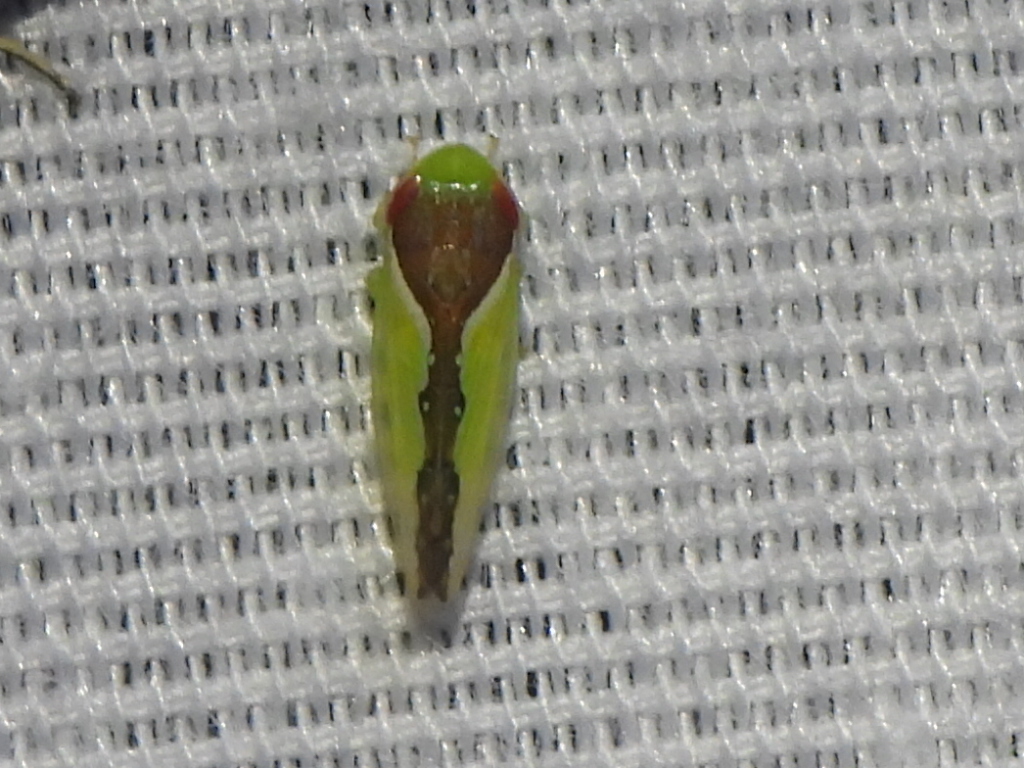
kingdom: Animalia
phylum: Arthropoda
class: Insecta
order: Hemiptera
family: Cicadellidae
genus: Omansobara ing
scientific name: Omansobara ing Omansobara palliolata
